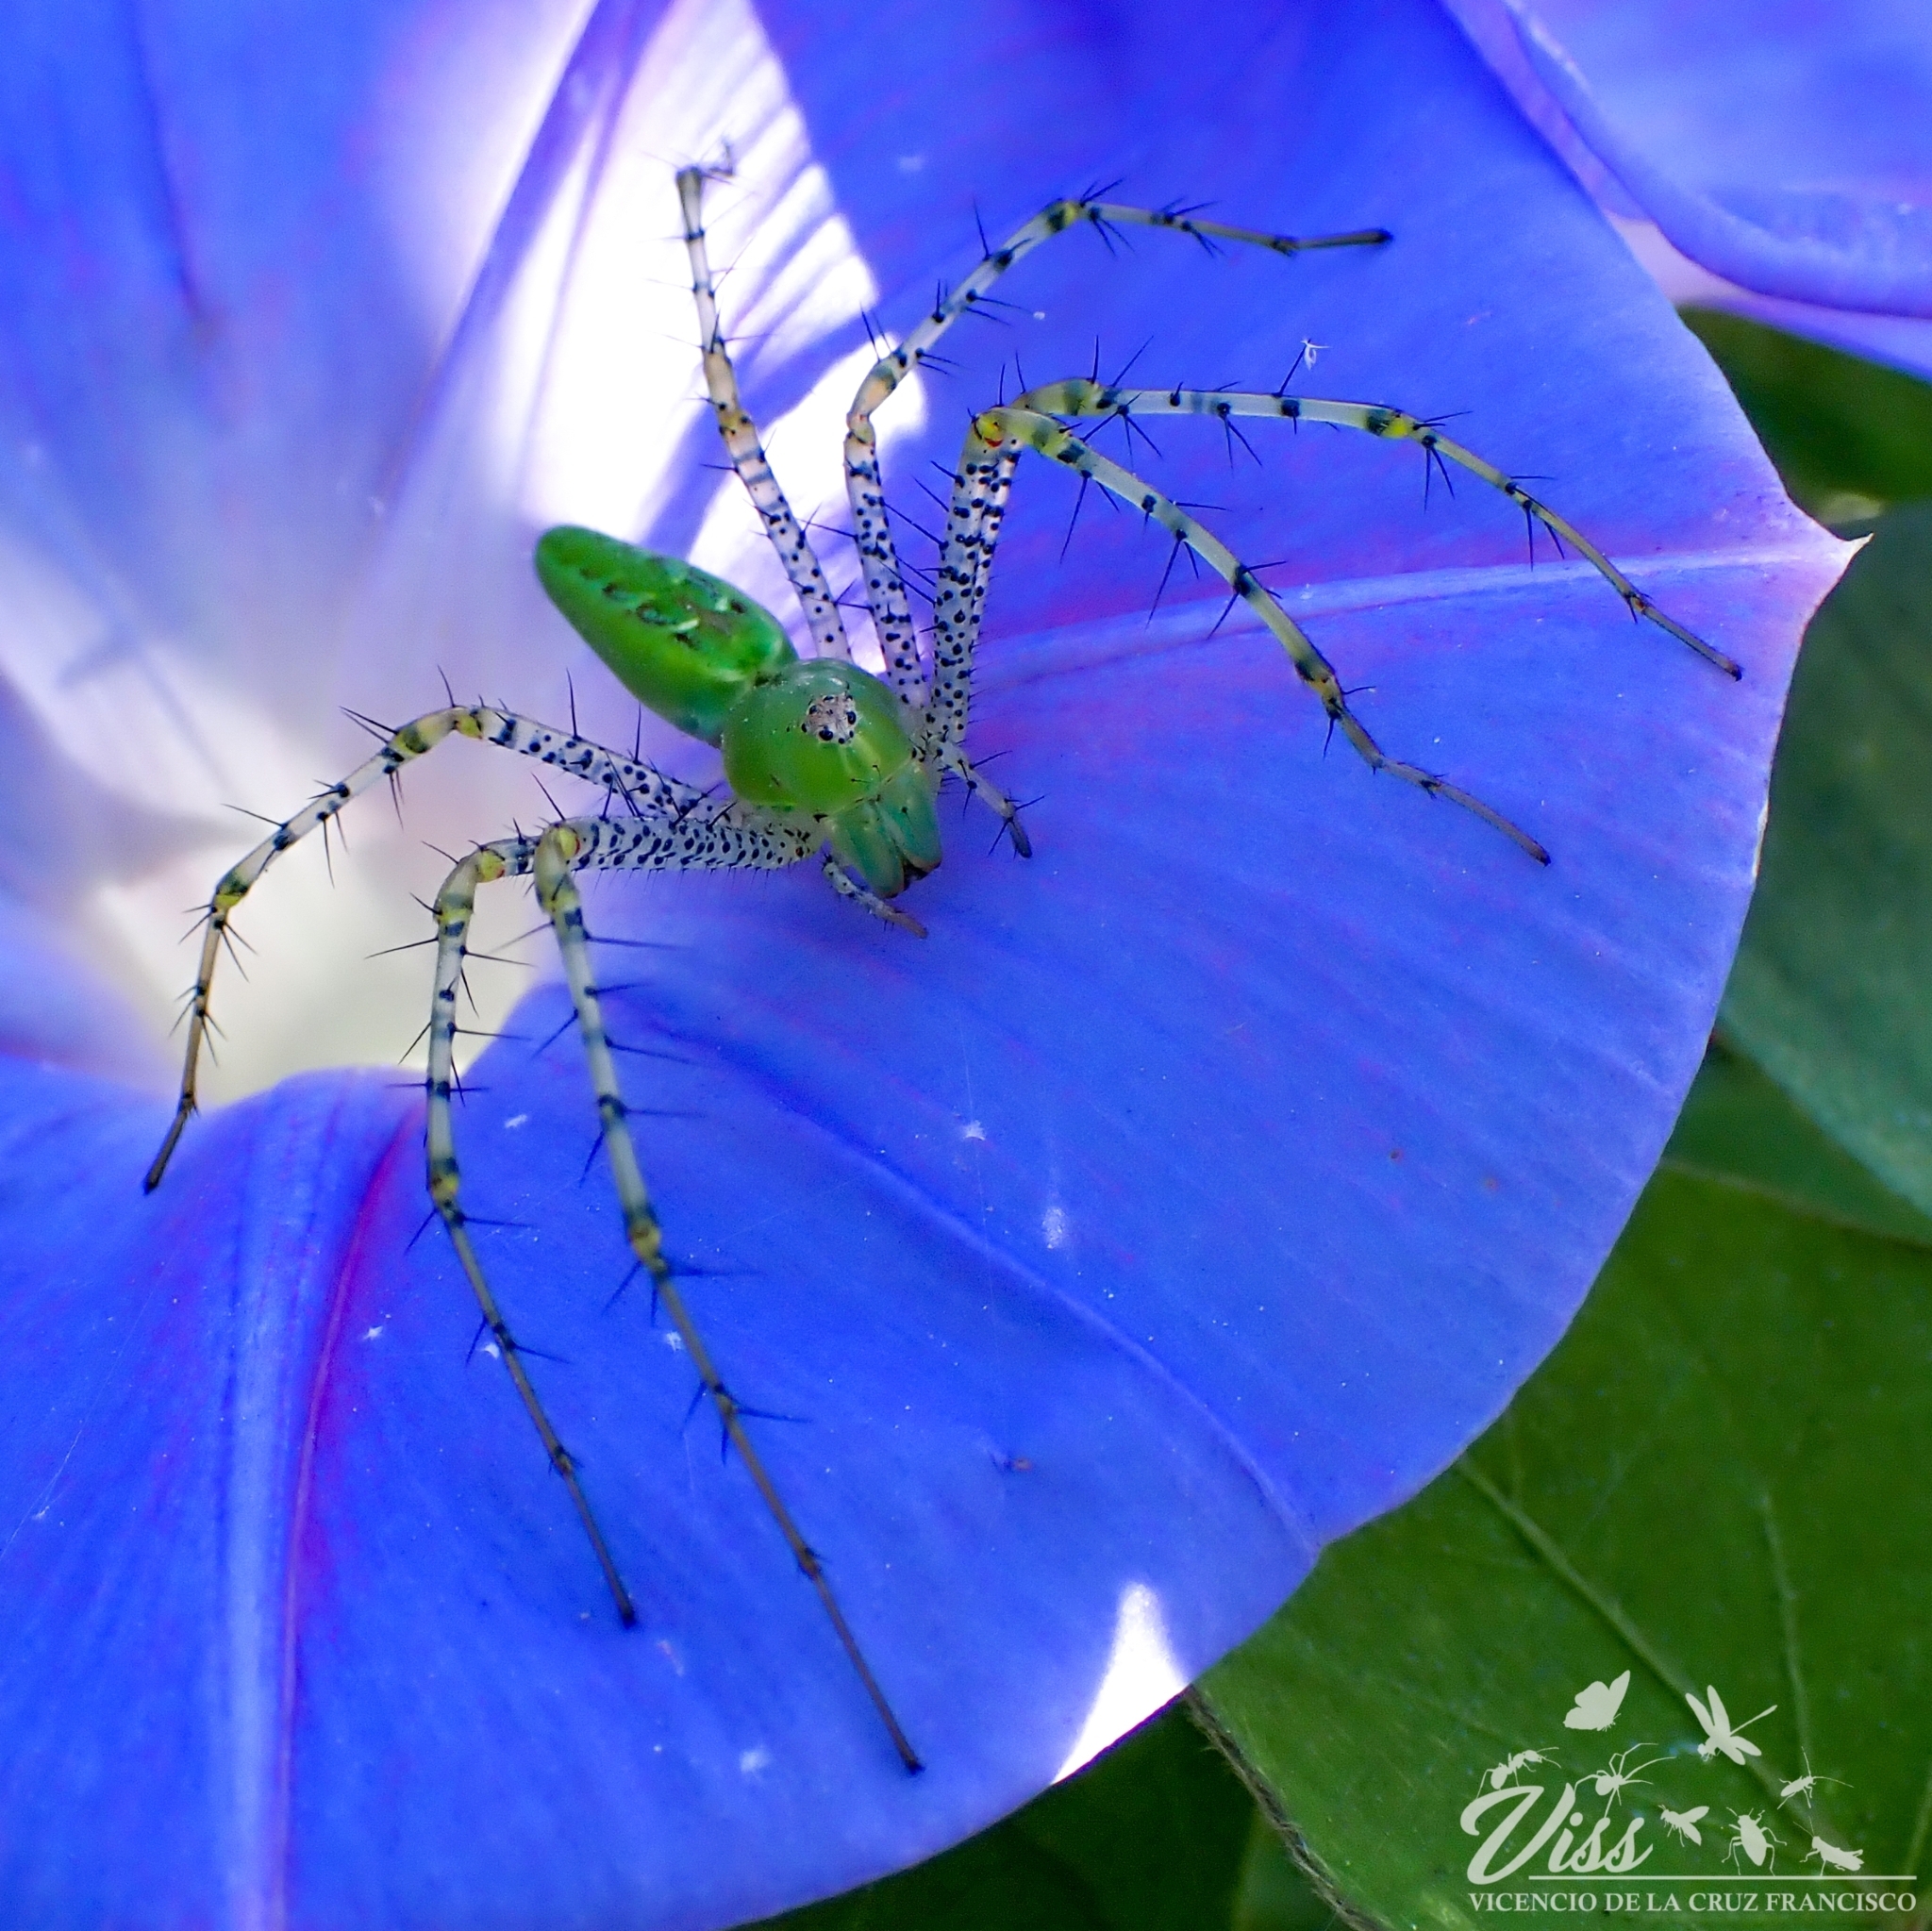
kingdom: Animalia
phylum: Arthropoda
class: Arachnida
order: Araneae
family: Oxyopidae
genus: Peucetia
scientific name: Peucetia viridans
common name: Lynx spiders
